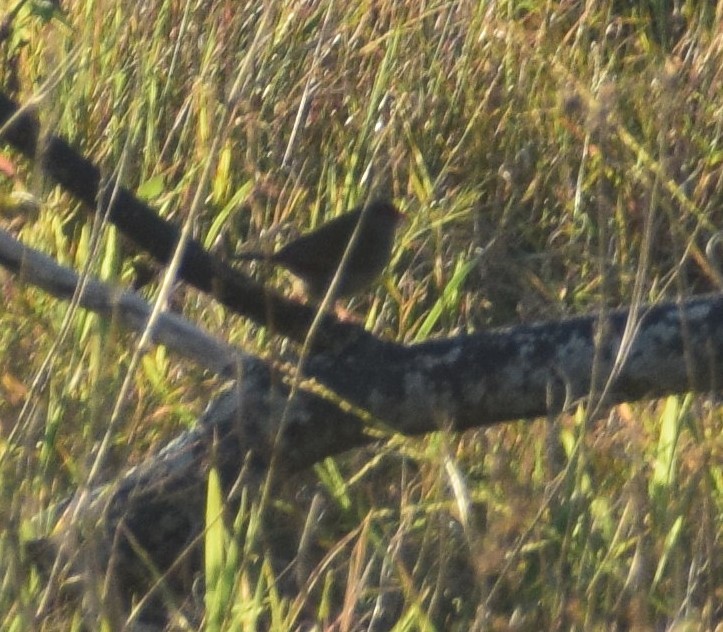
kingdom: Animalia
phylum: Chordata
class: Aves
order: Passeriformes
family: Estrildidae
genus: Neochmia
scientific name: Neochmia temporalis
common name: Red-browed finch
